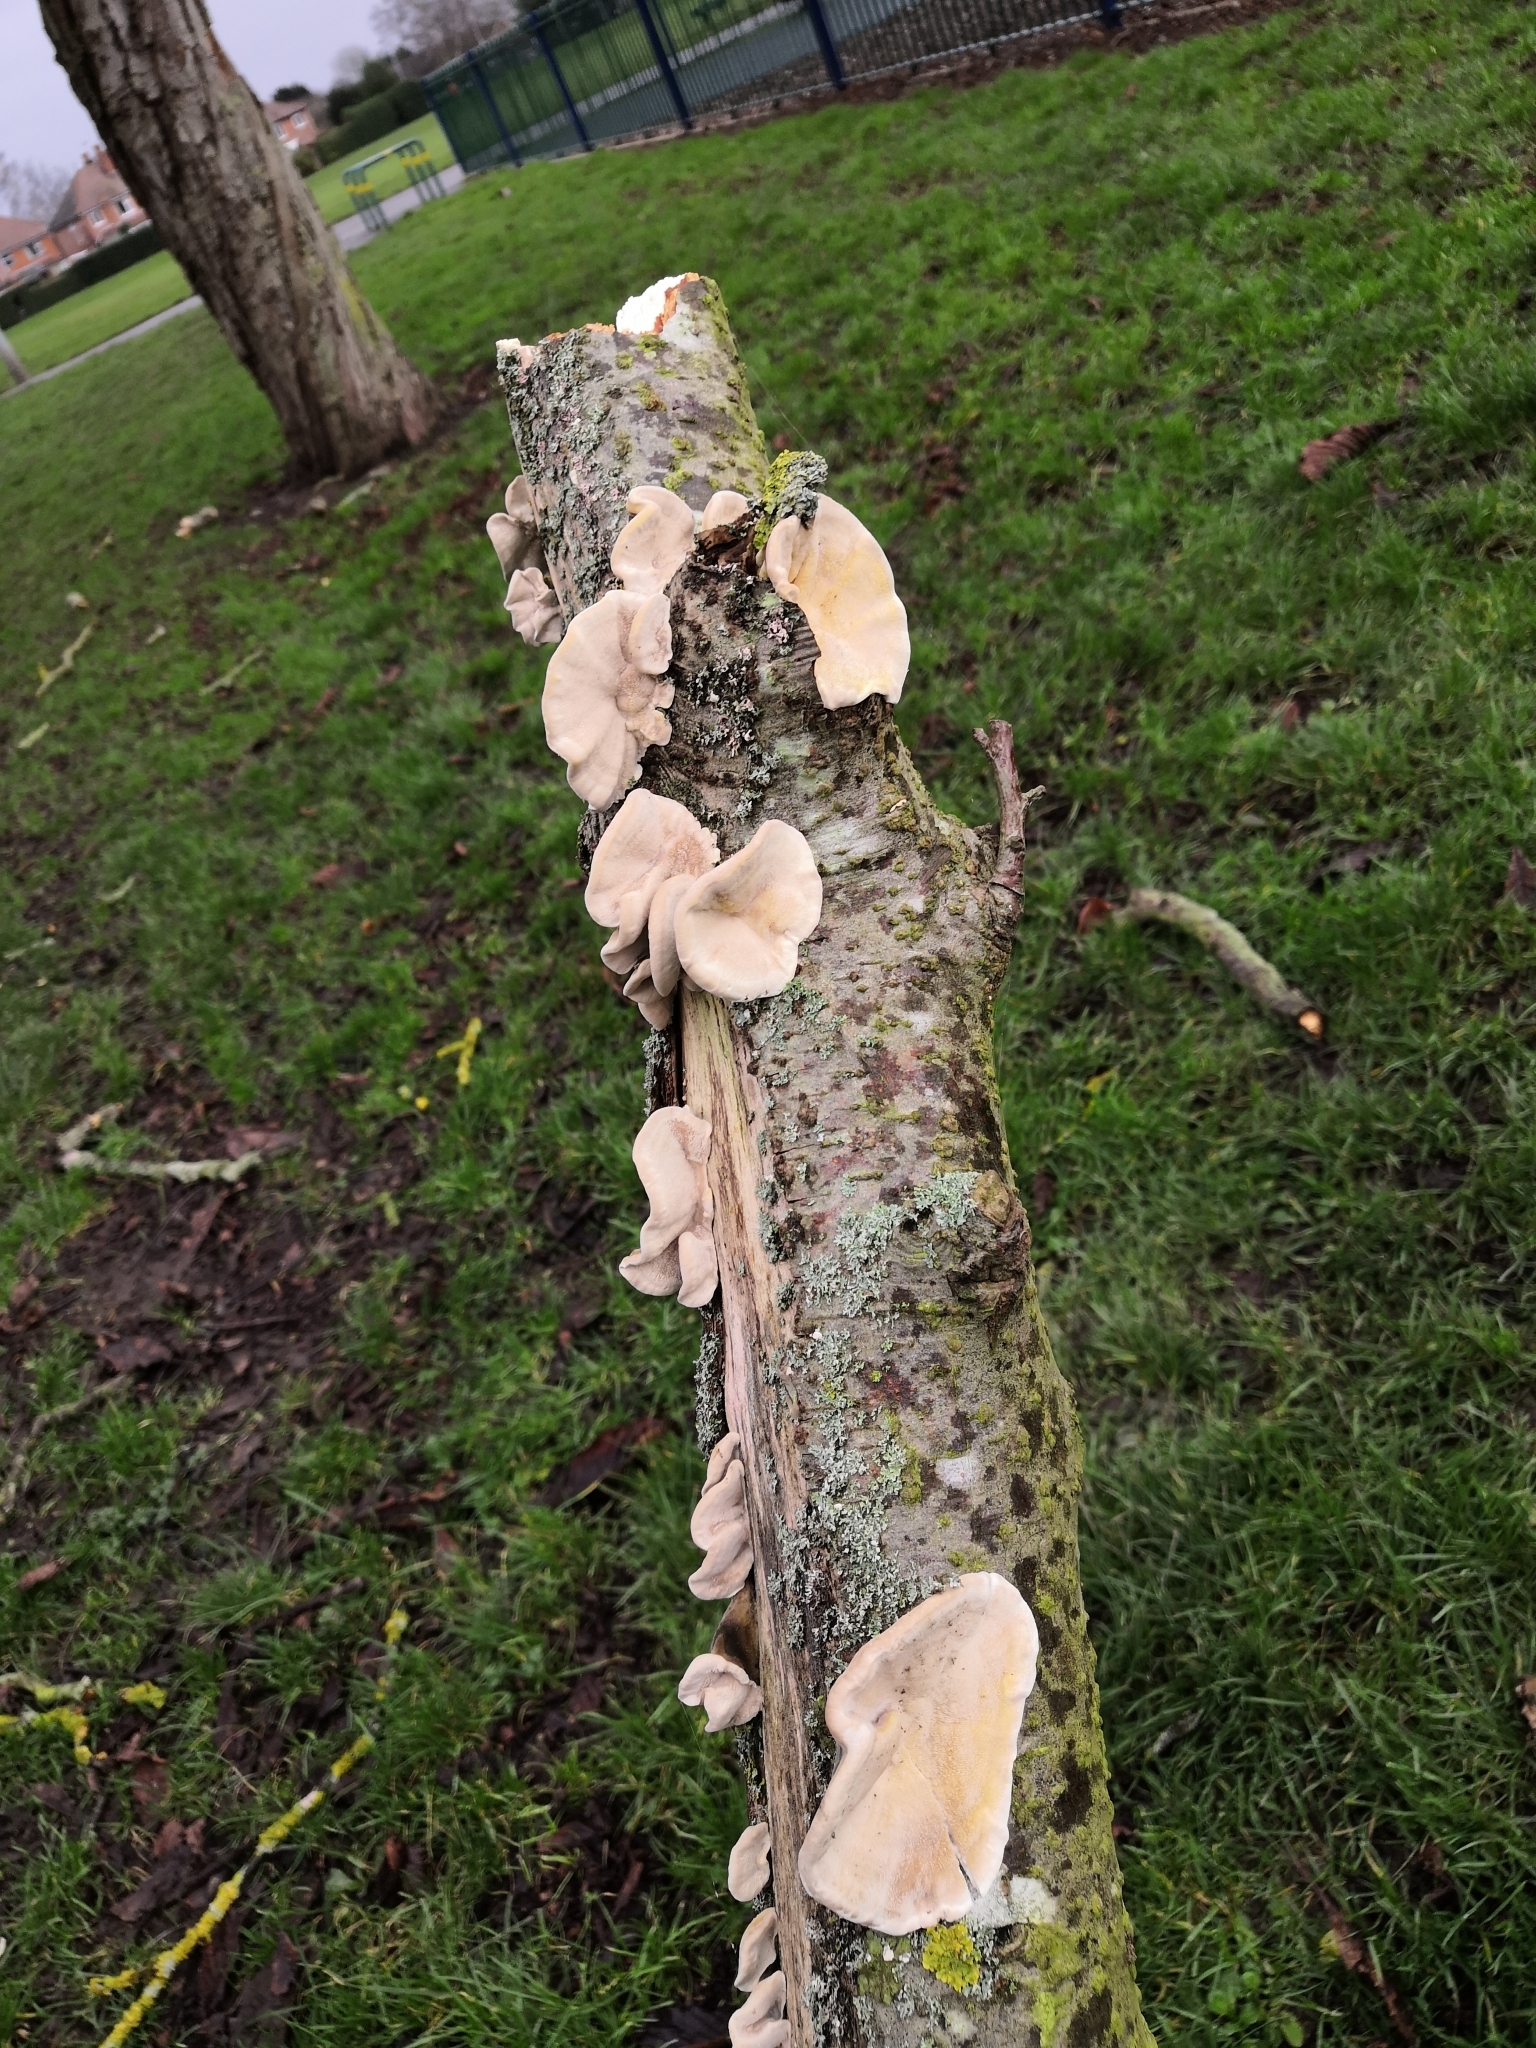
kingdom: Fungi
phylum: Basidiomycota
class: Agaricomycetes
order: Polyporales
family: Polyporaceae
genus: Trametes
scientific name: Trametes versicolor
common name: Turkeytail
